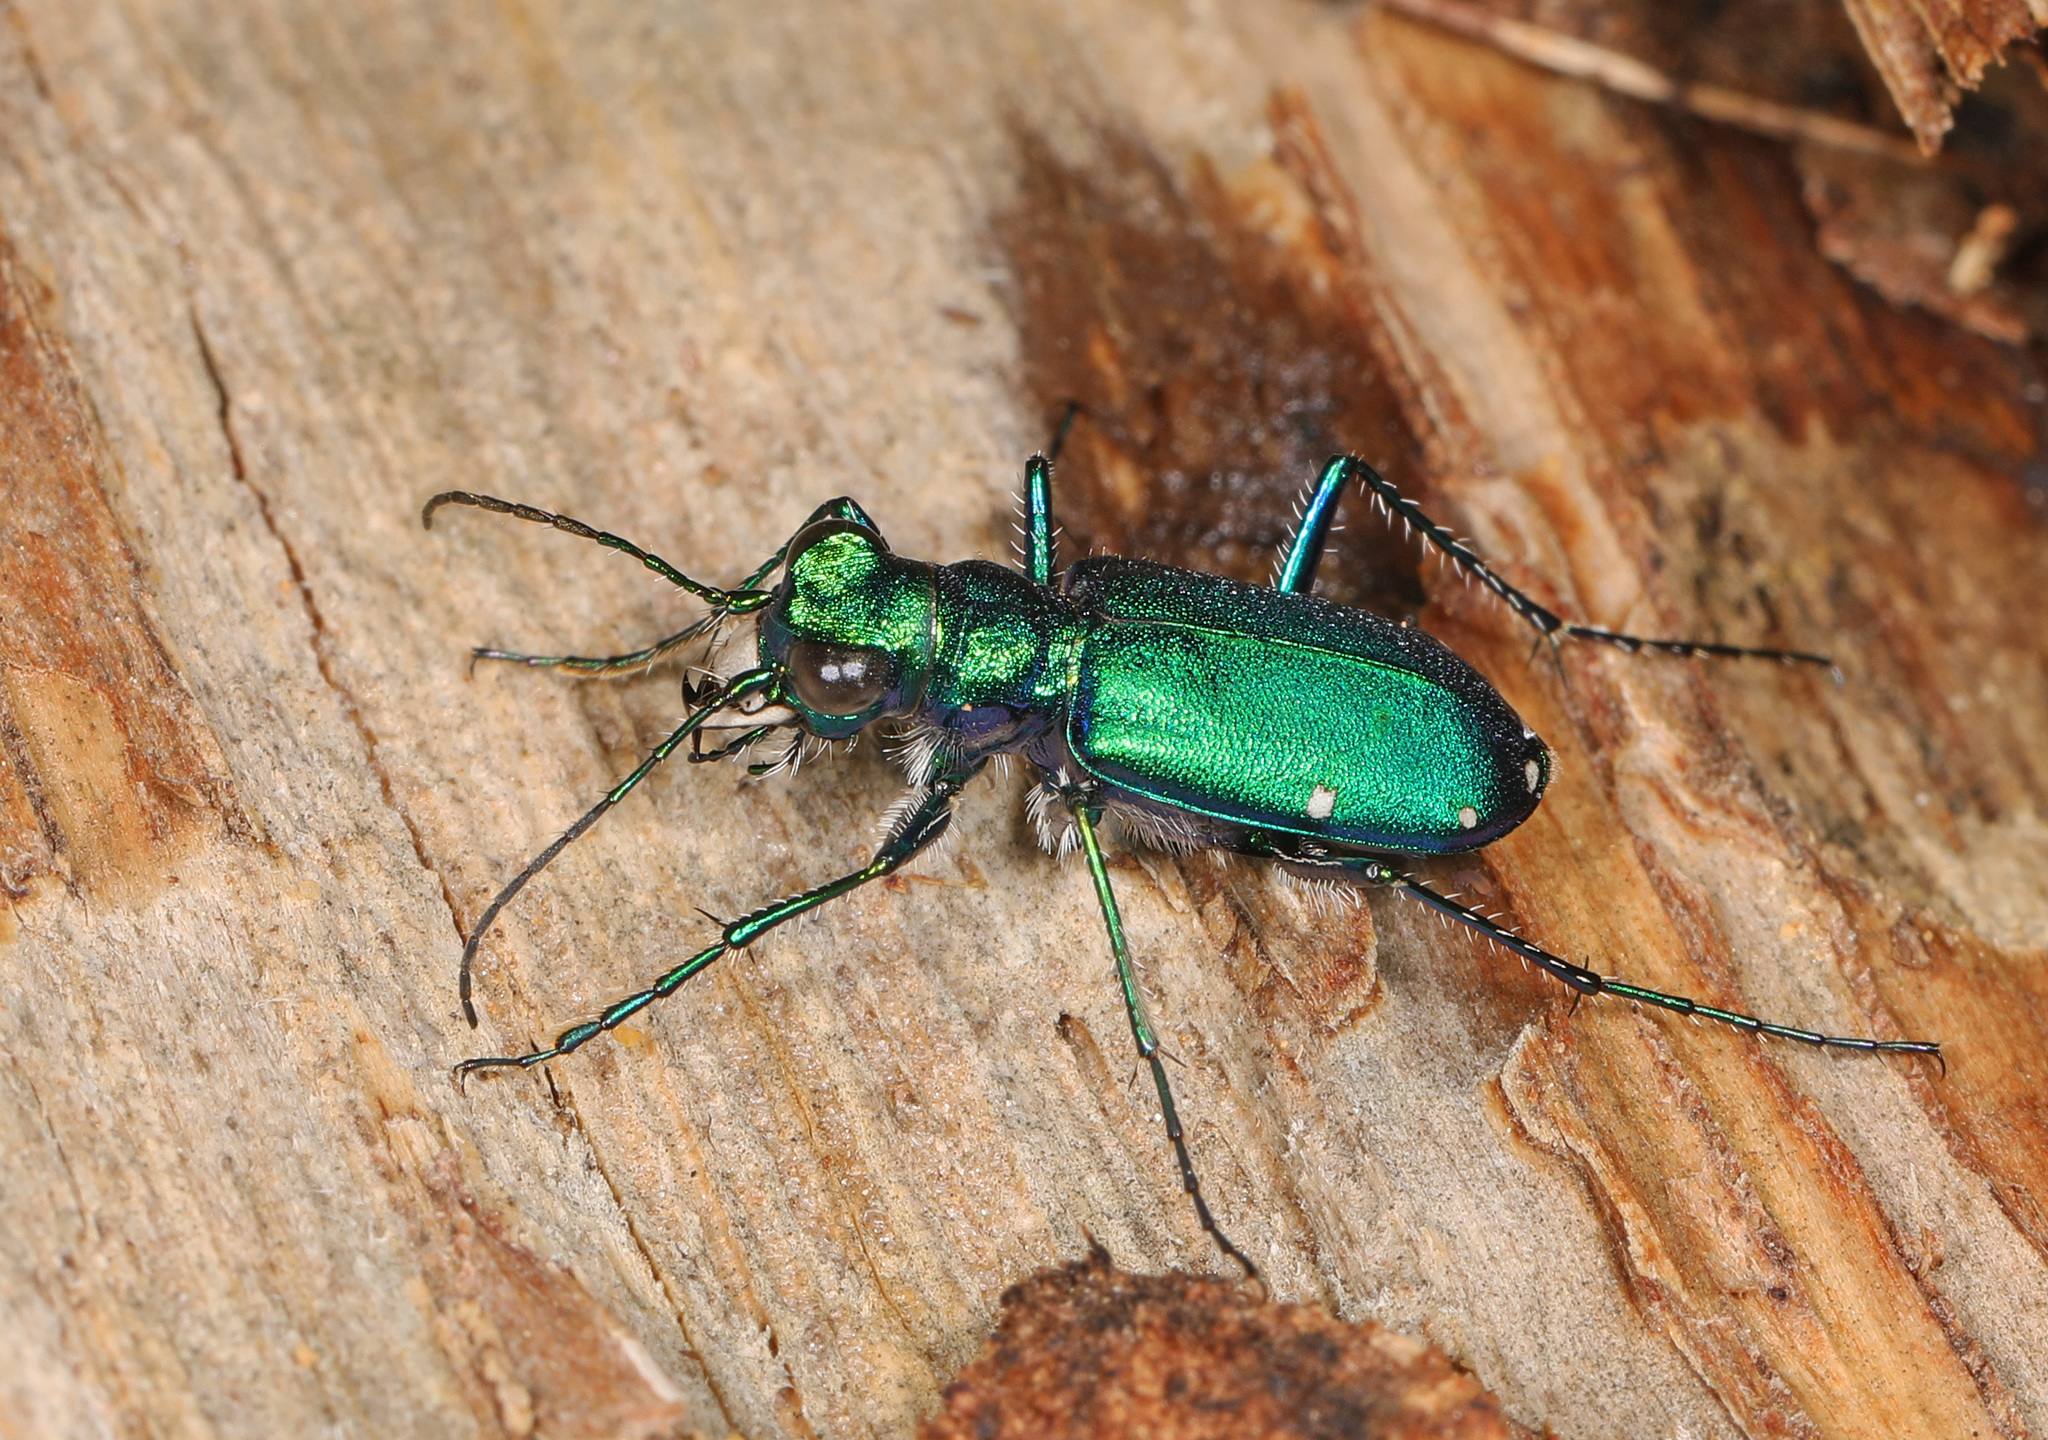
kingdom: Animalia
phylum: Arthropoda
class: Insecta
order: Coleoptera
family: Carabidae
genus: Cicindela
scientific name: Cicindela sexguttata
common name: Six-spotted tiger beetle
